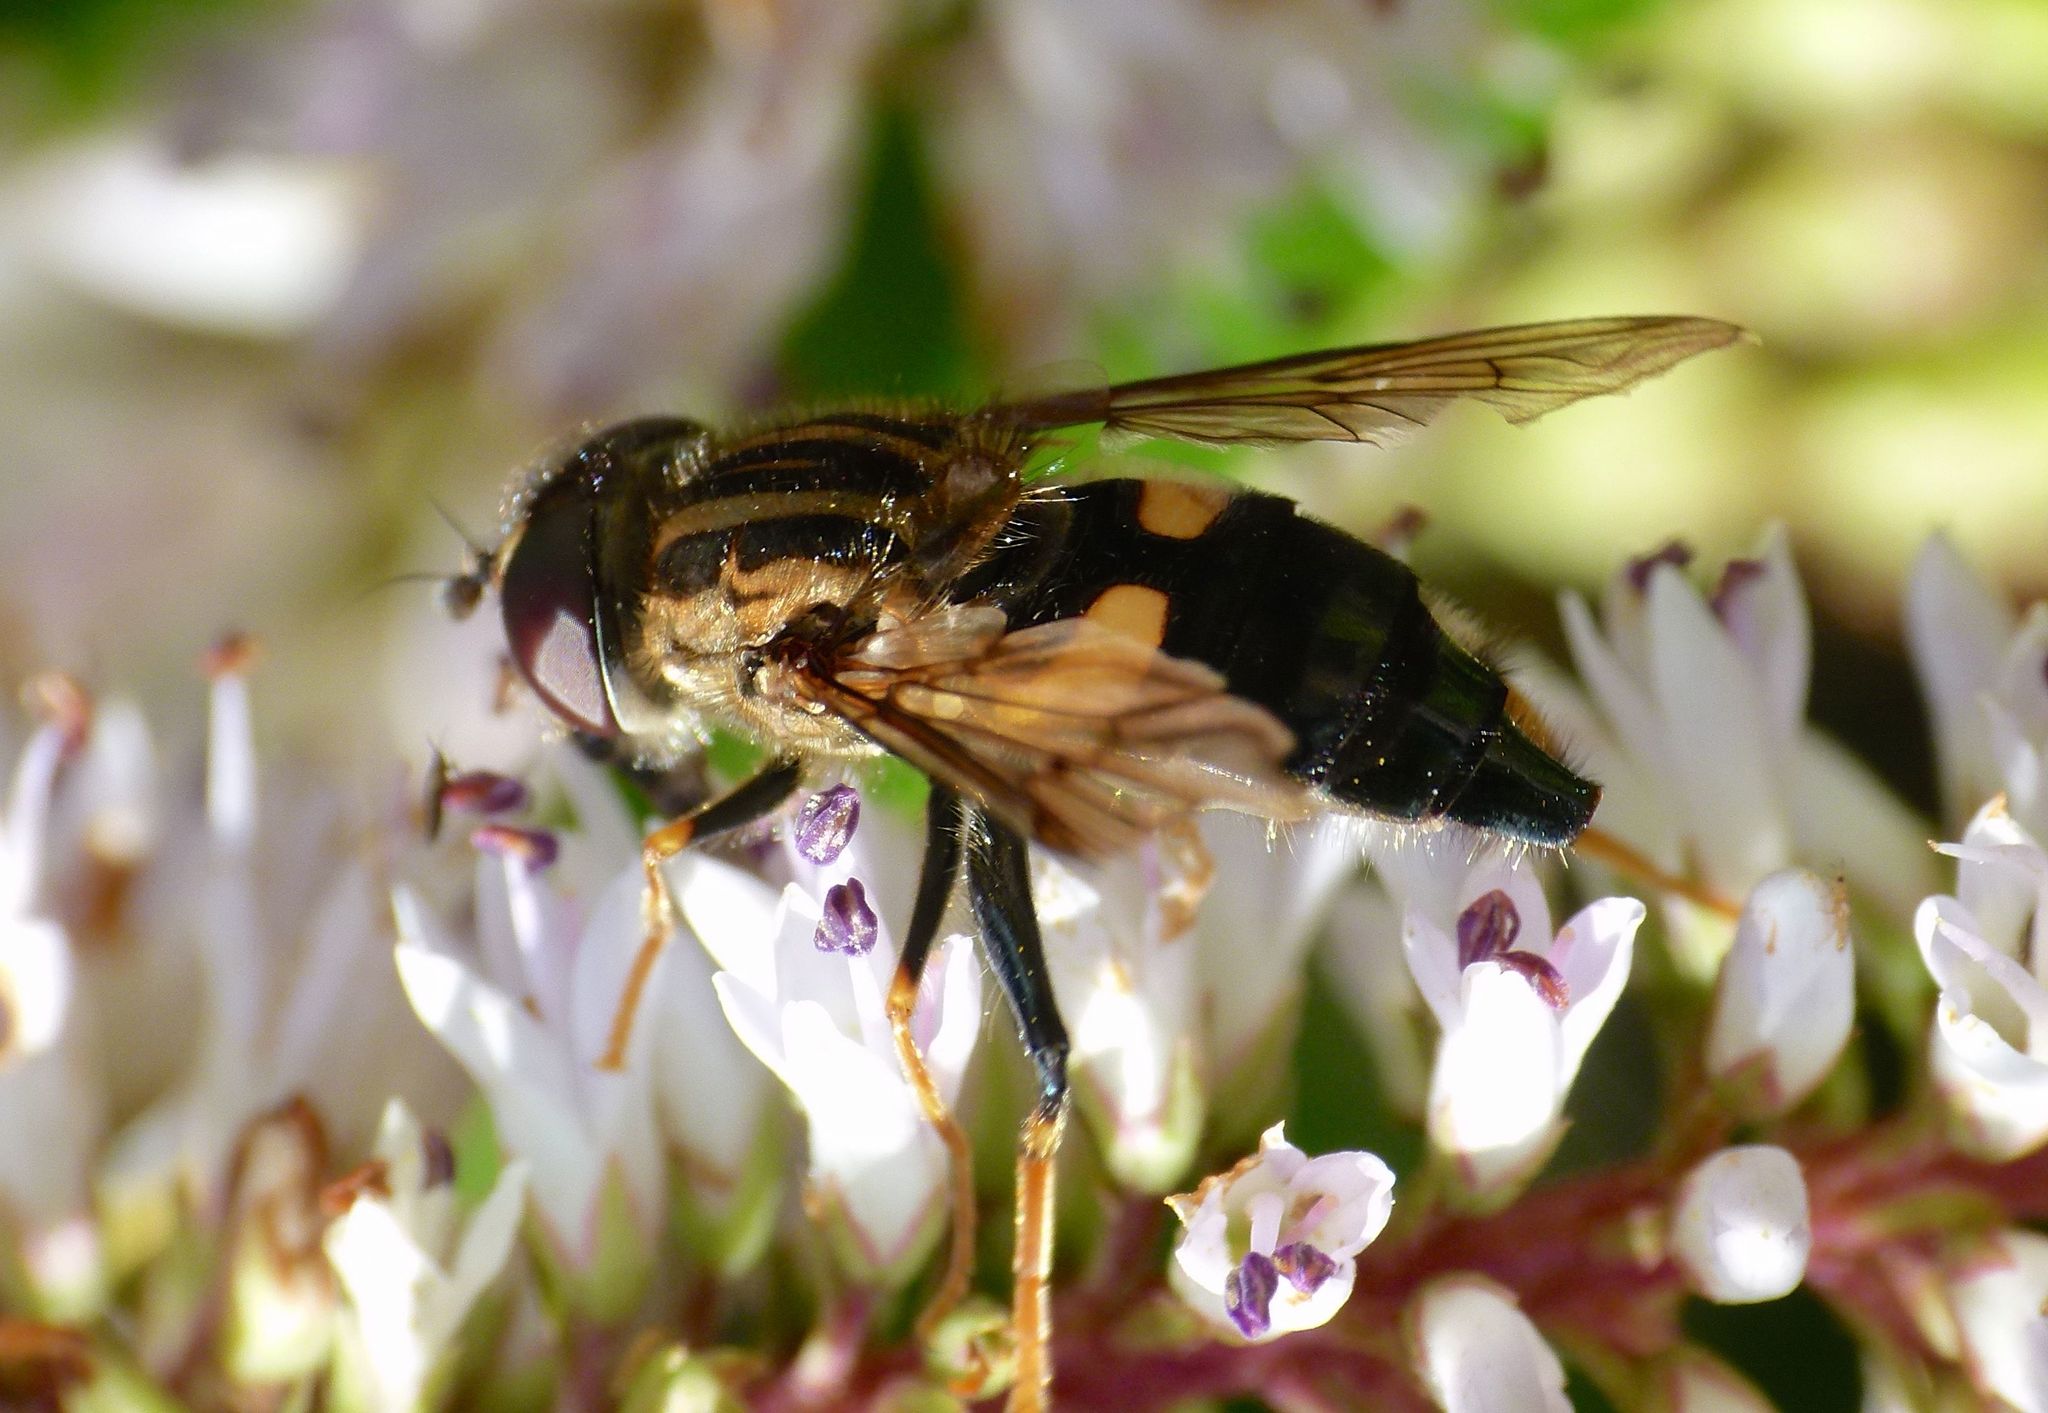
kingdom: Animalia
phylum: Arthropoda
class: Insecta
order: Diptera
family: Syrphidae
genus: Helophilus
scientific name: Helophilus antipodus
